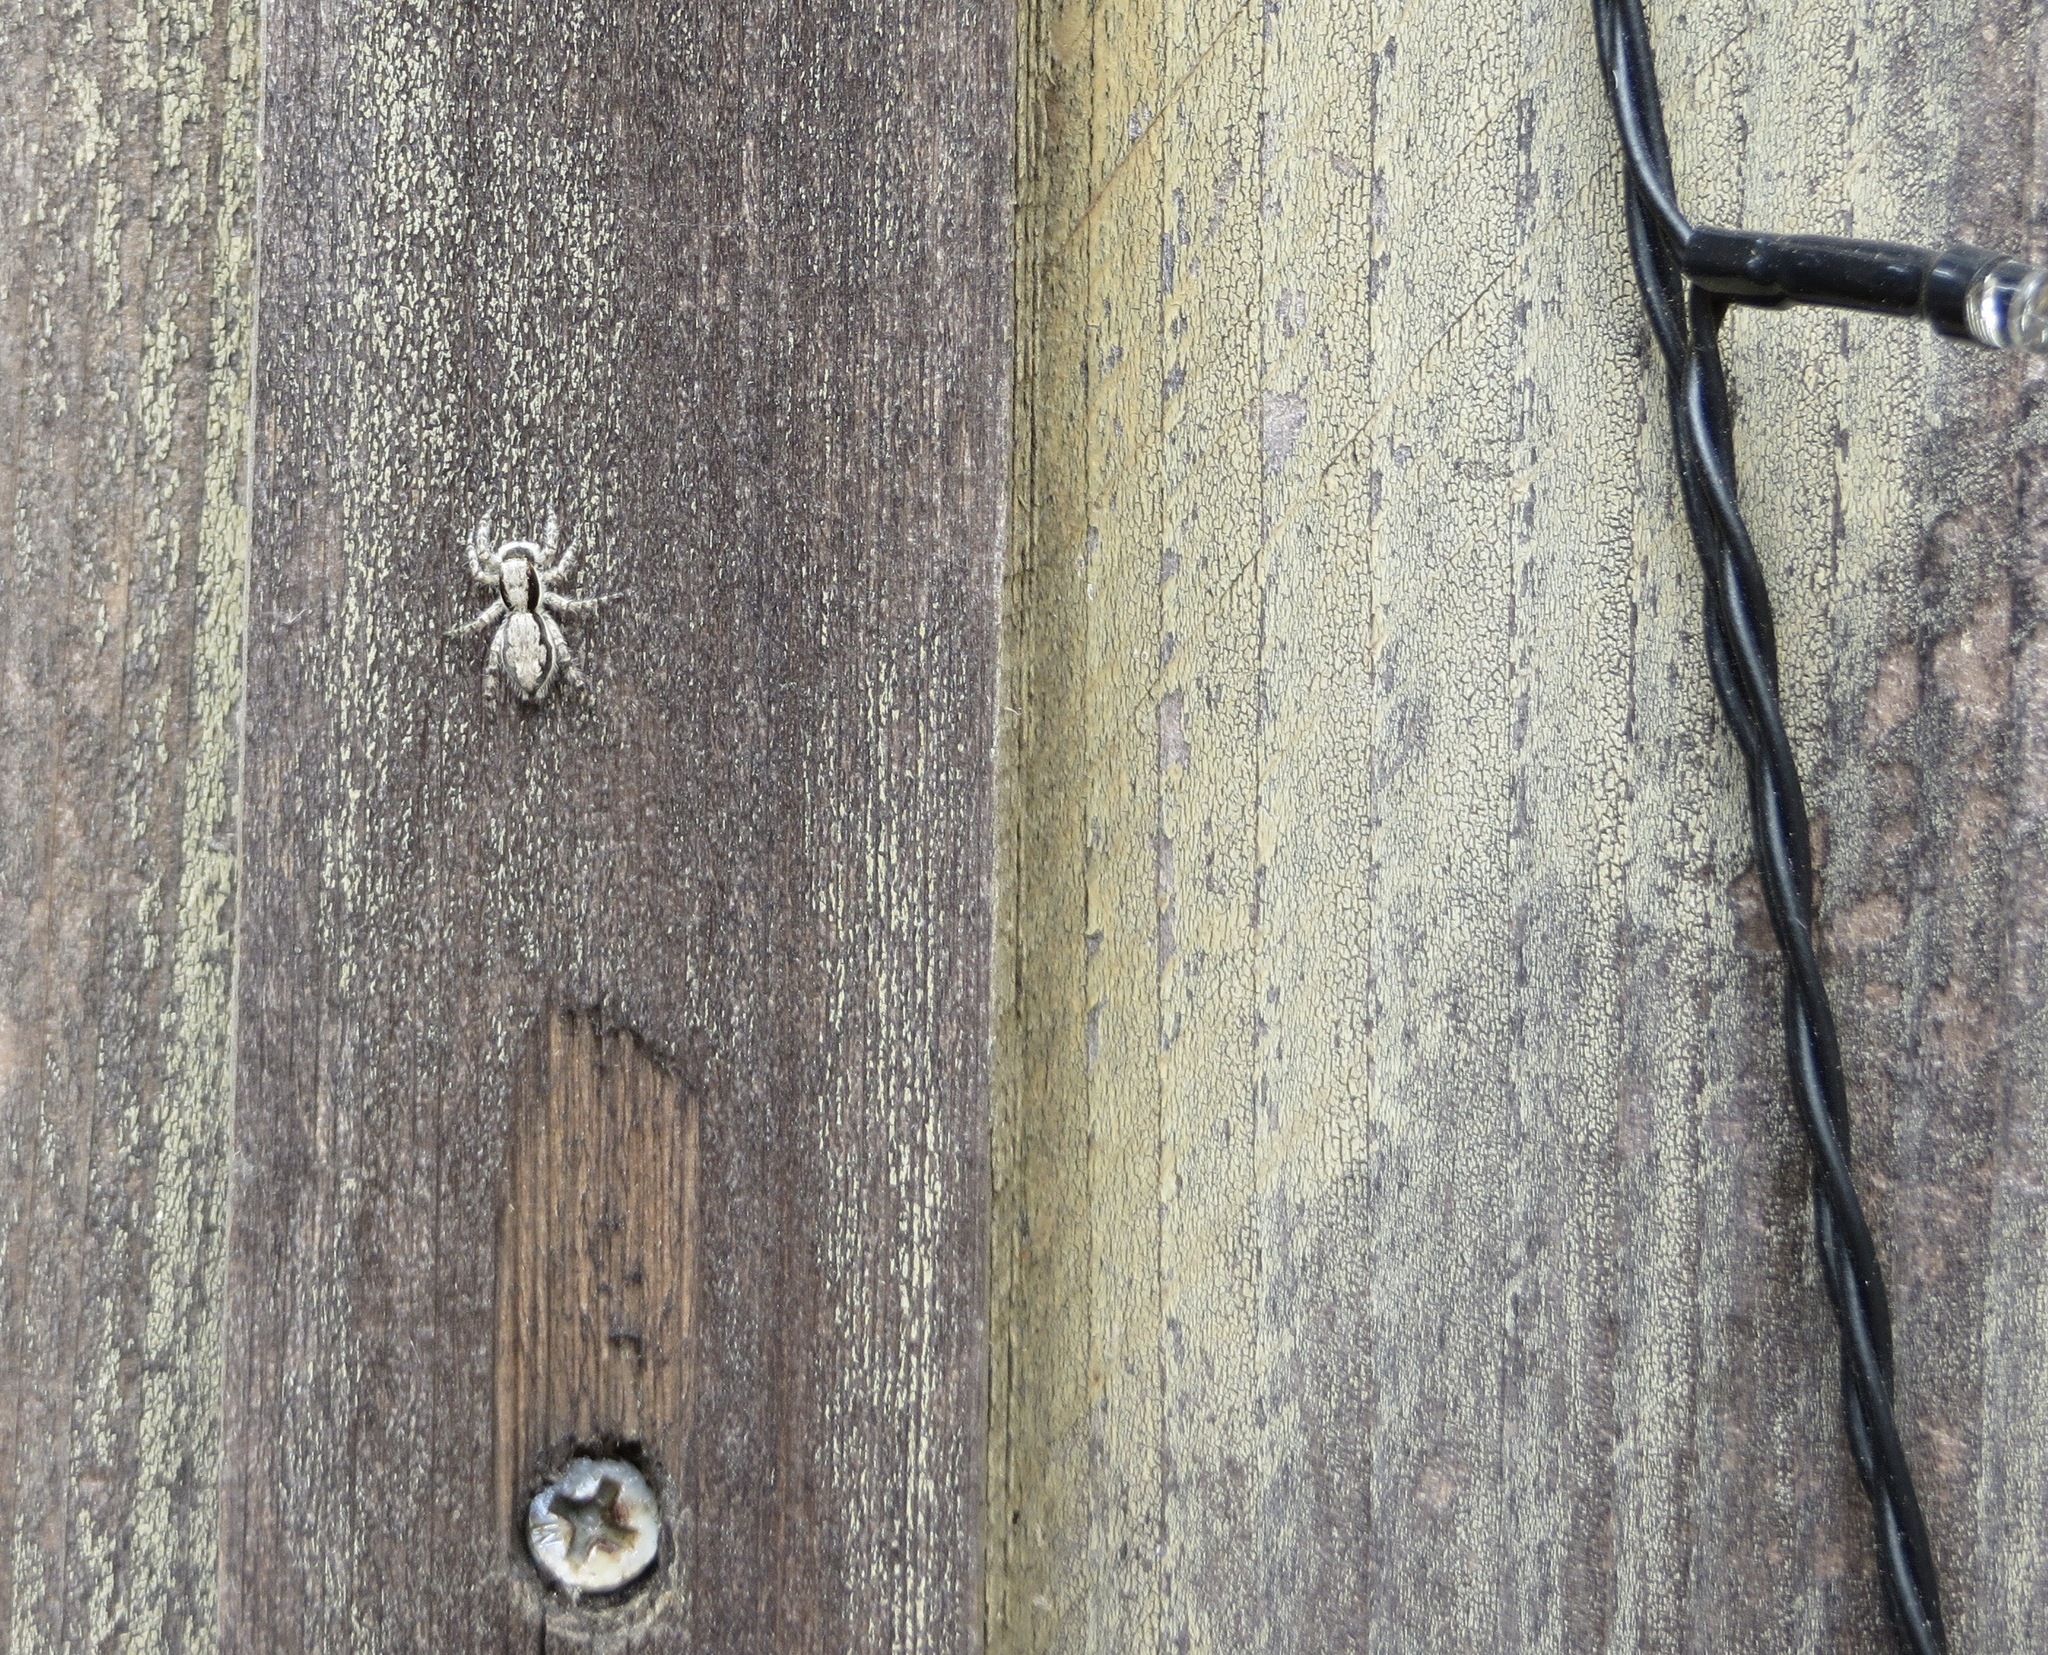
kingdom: Animalia
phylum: Arthropoda
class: Arachnida
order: Araneae
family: Salticidae
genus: Menemerus
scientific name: Menemerus bivittatus
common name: Gray wall jumper
